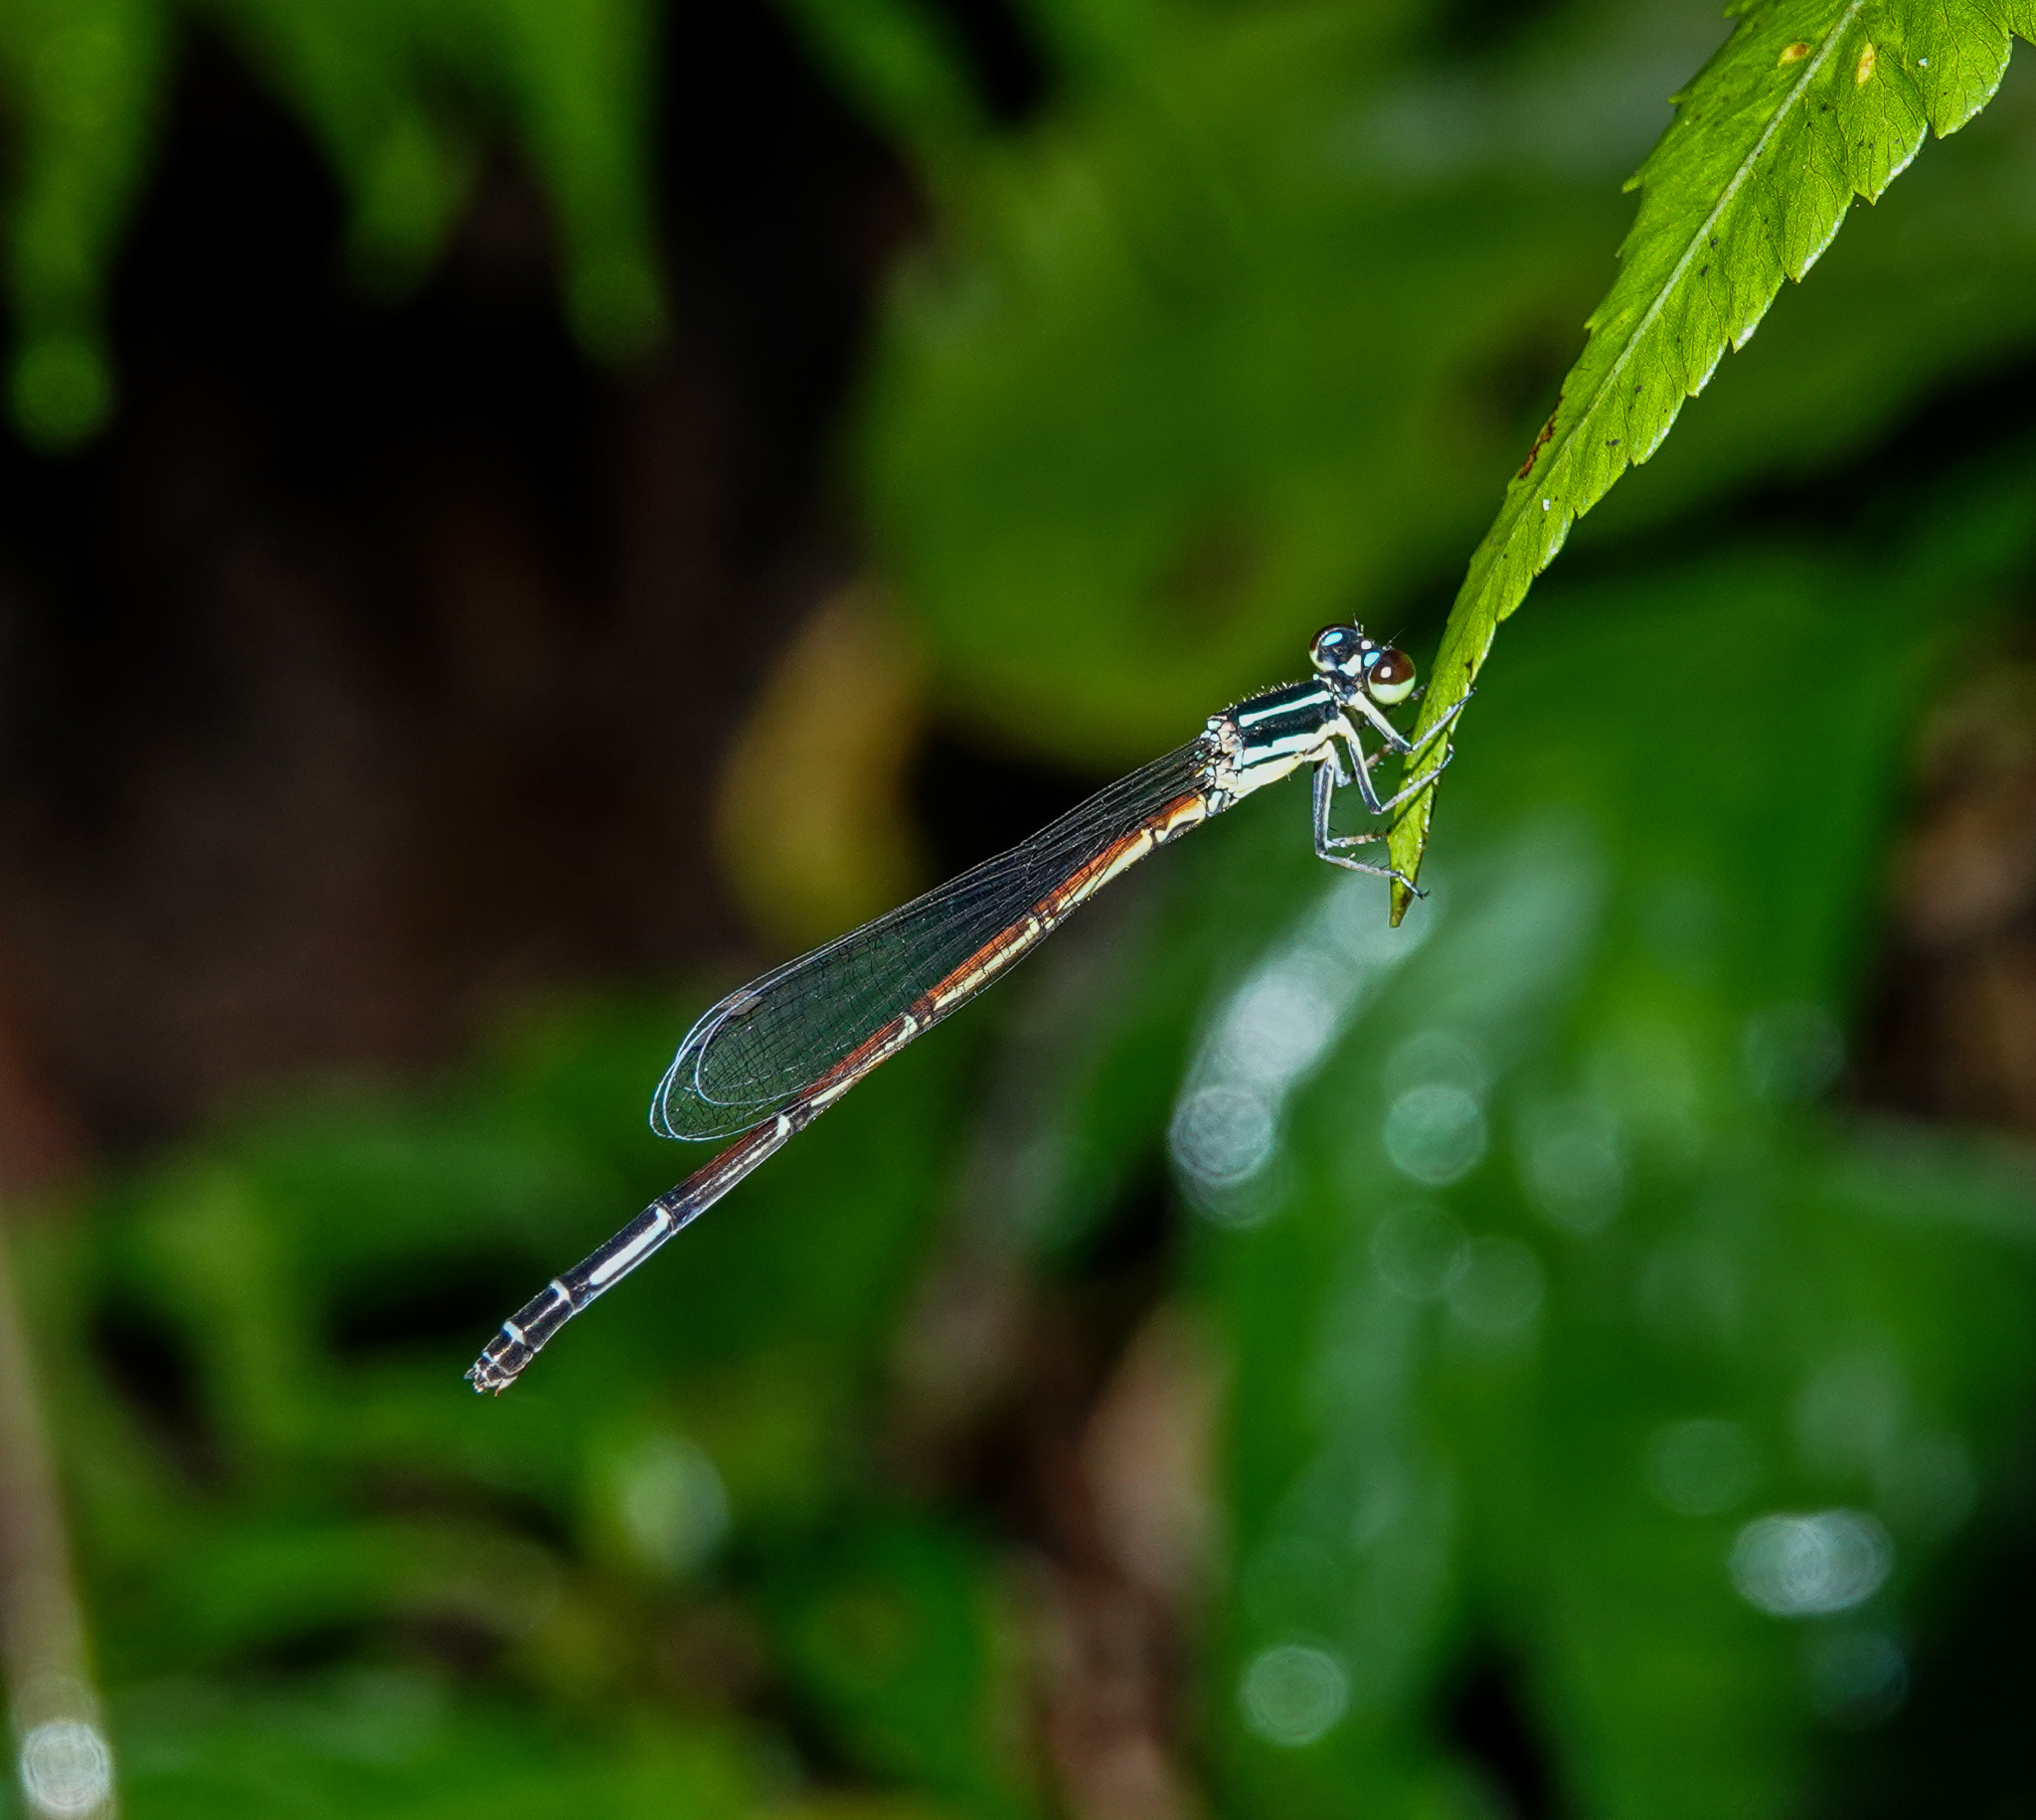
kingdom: Animalia
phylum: Arthropoda
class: Insecta
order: Odonata
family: Coenagrionidae
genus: Mortonagrion
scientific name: Mortonagrion aborense
